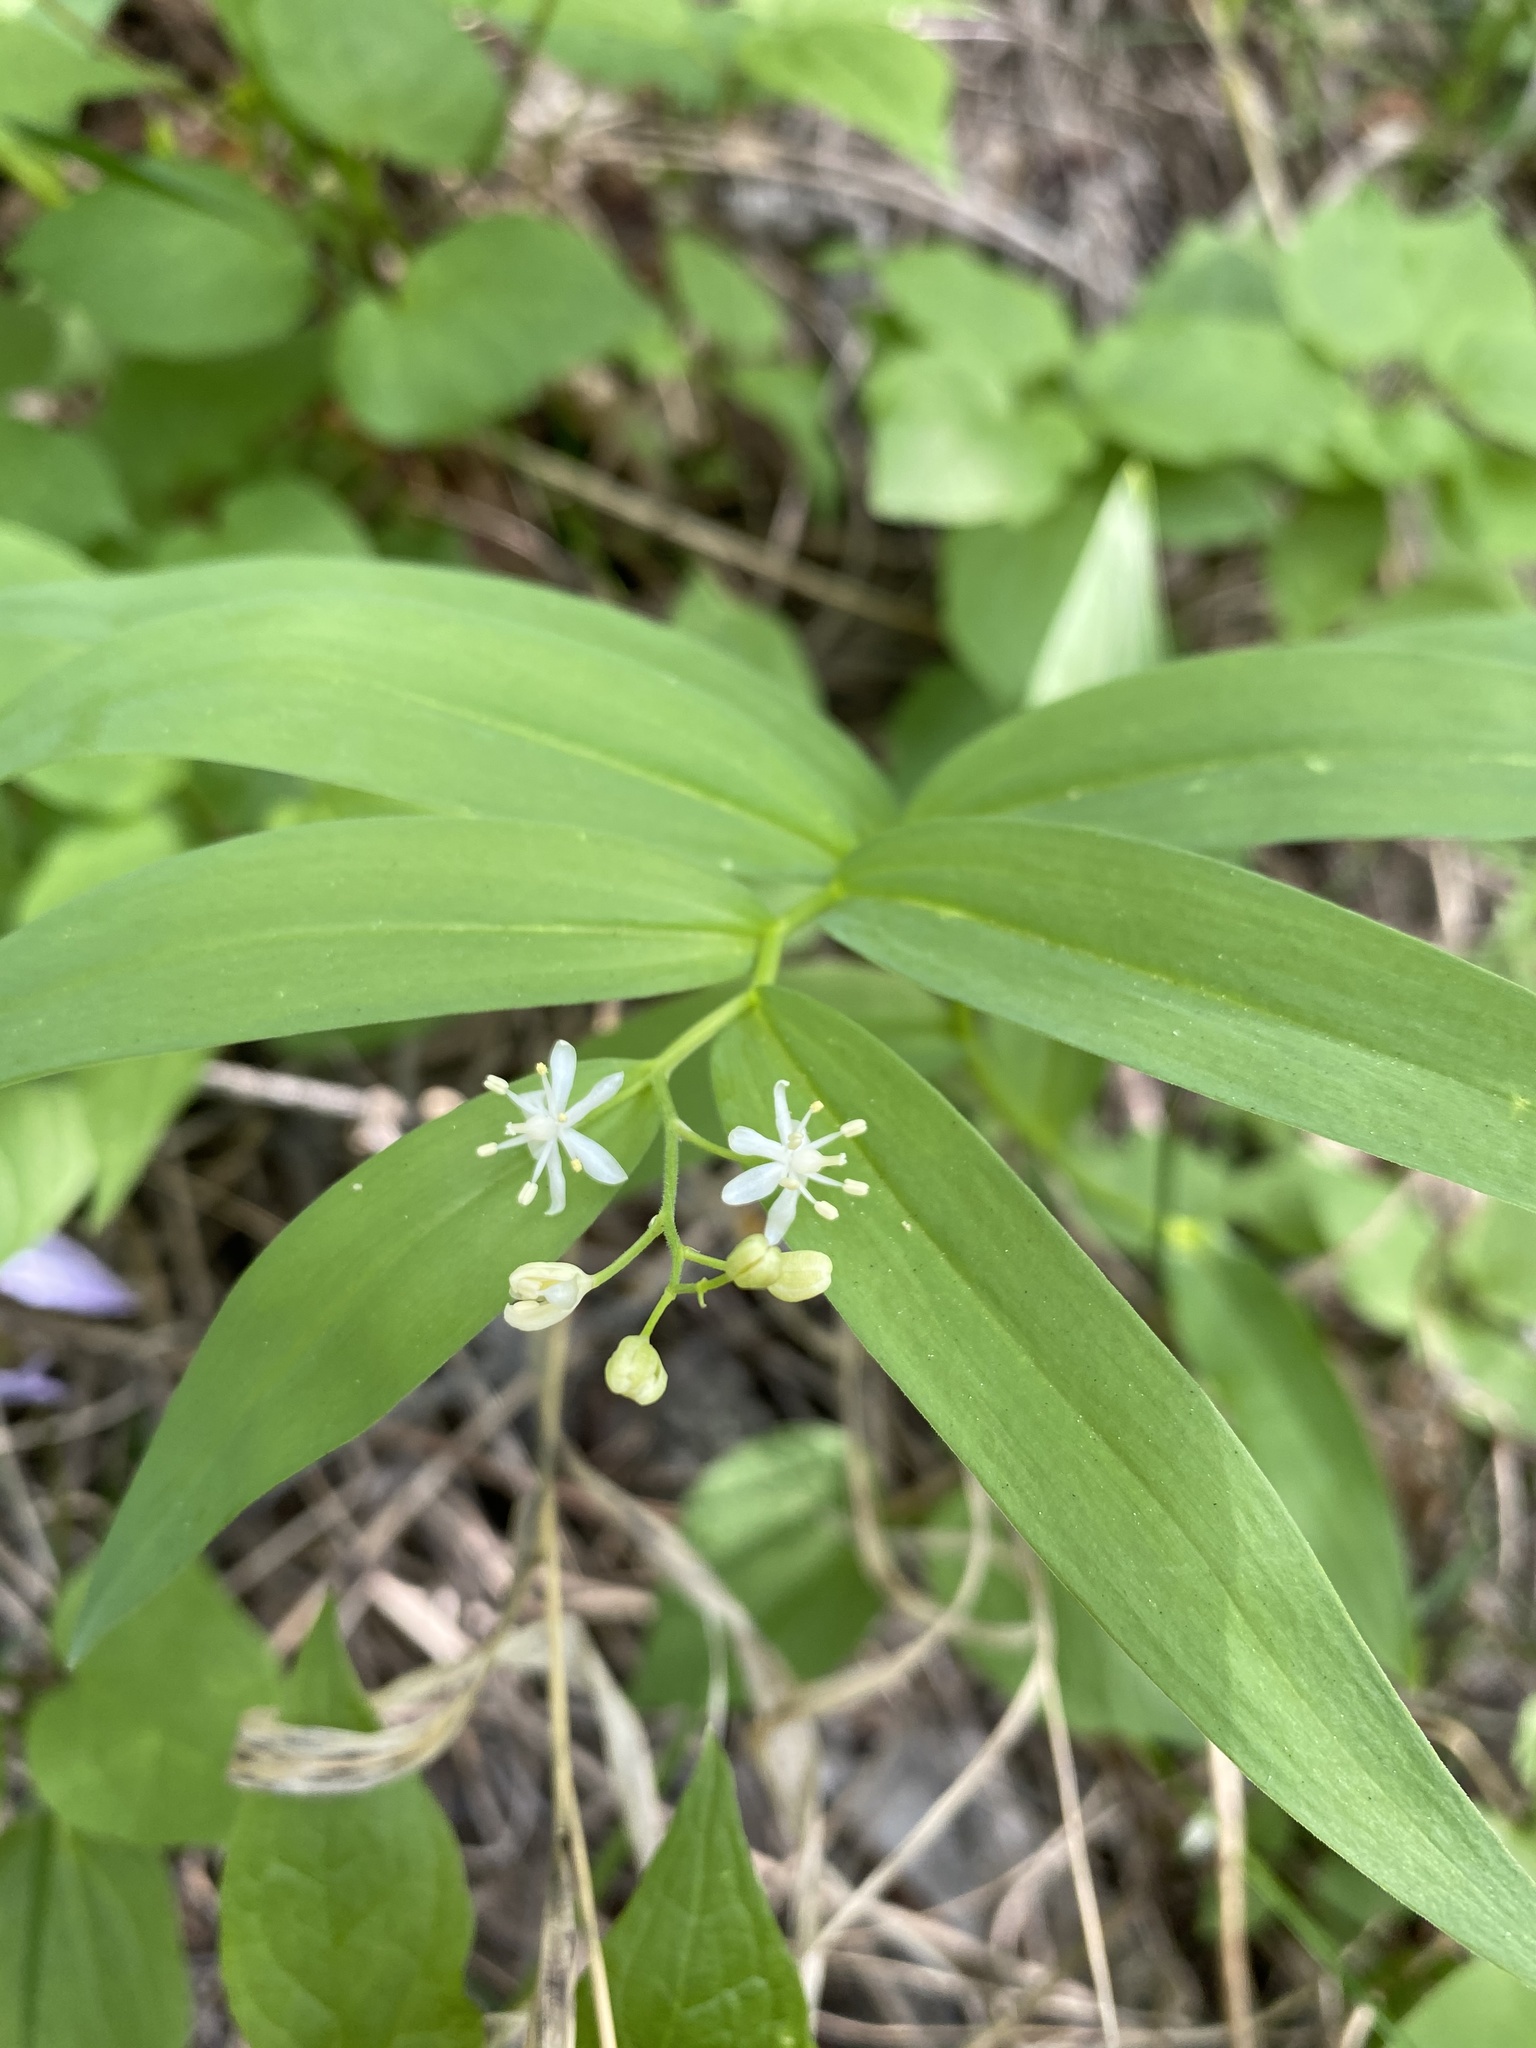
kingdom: Plantae
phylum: Tracheophyta
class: Liliopsida
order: Asparagales
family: Asparagaceae
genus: Maianthemum
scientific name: Maianthemum stellatum
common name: Little false solomon's seal
